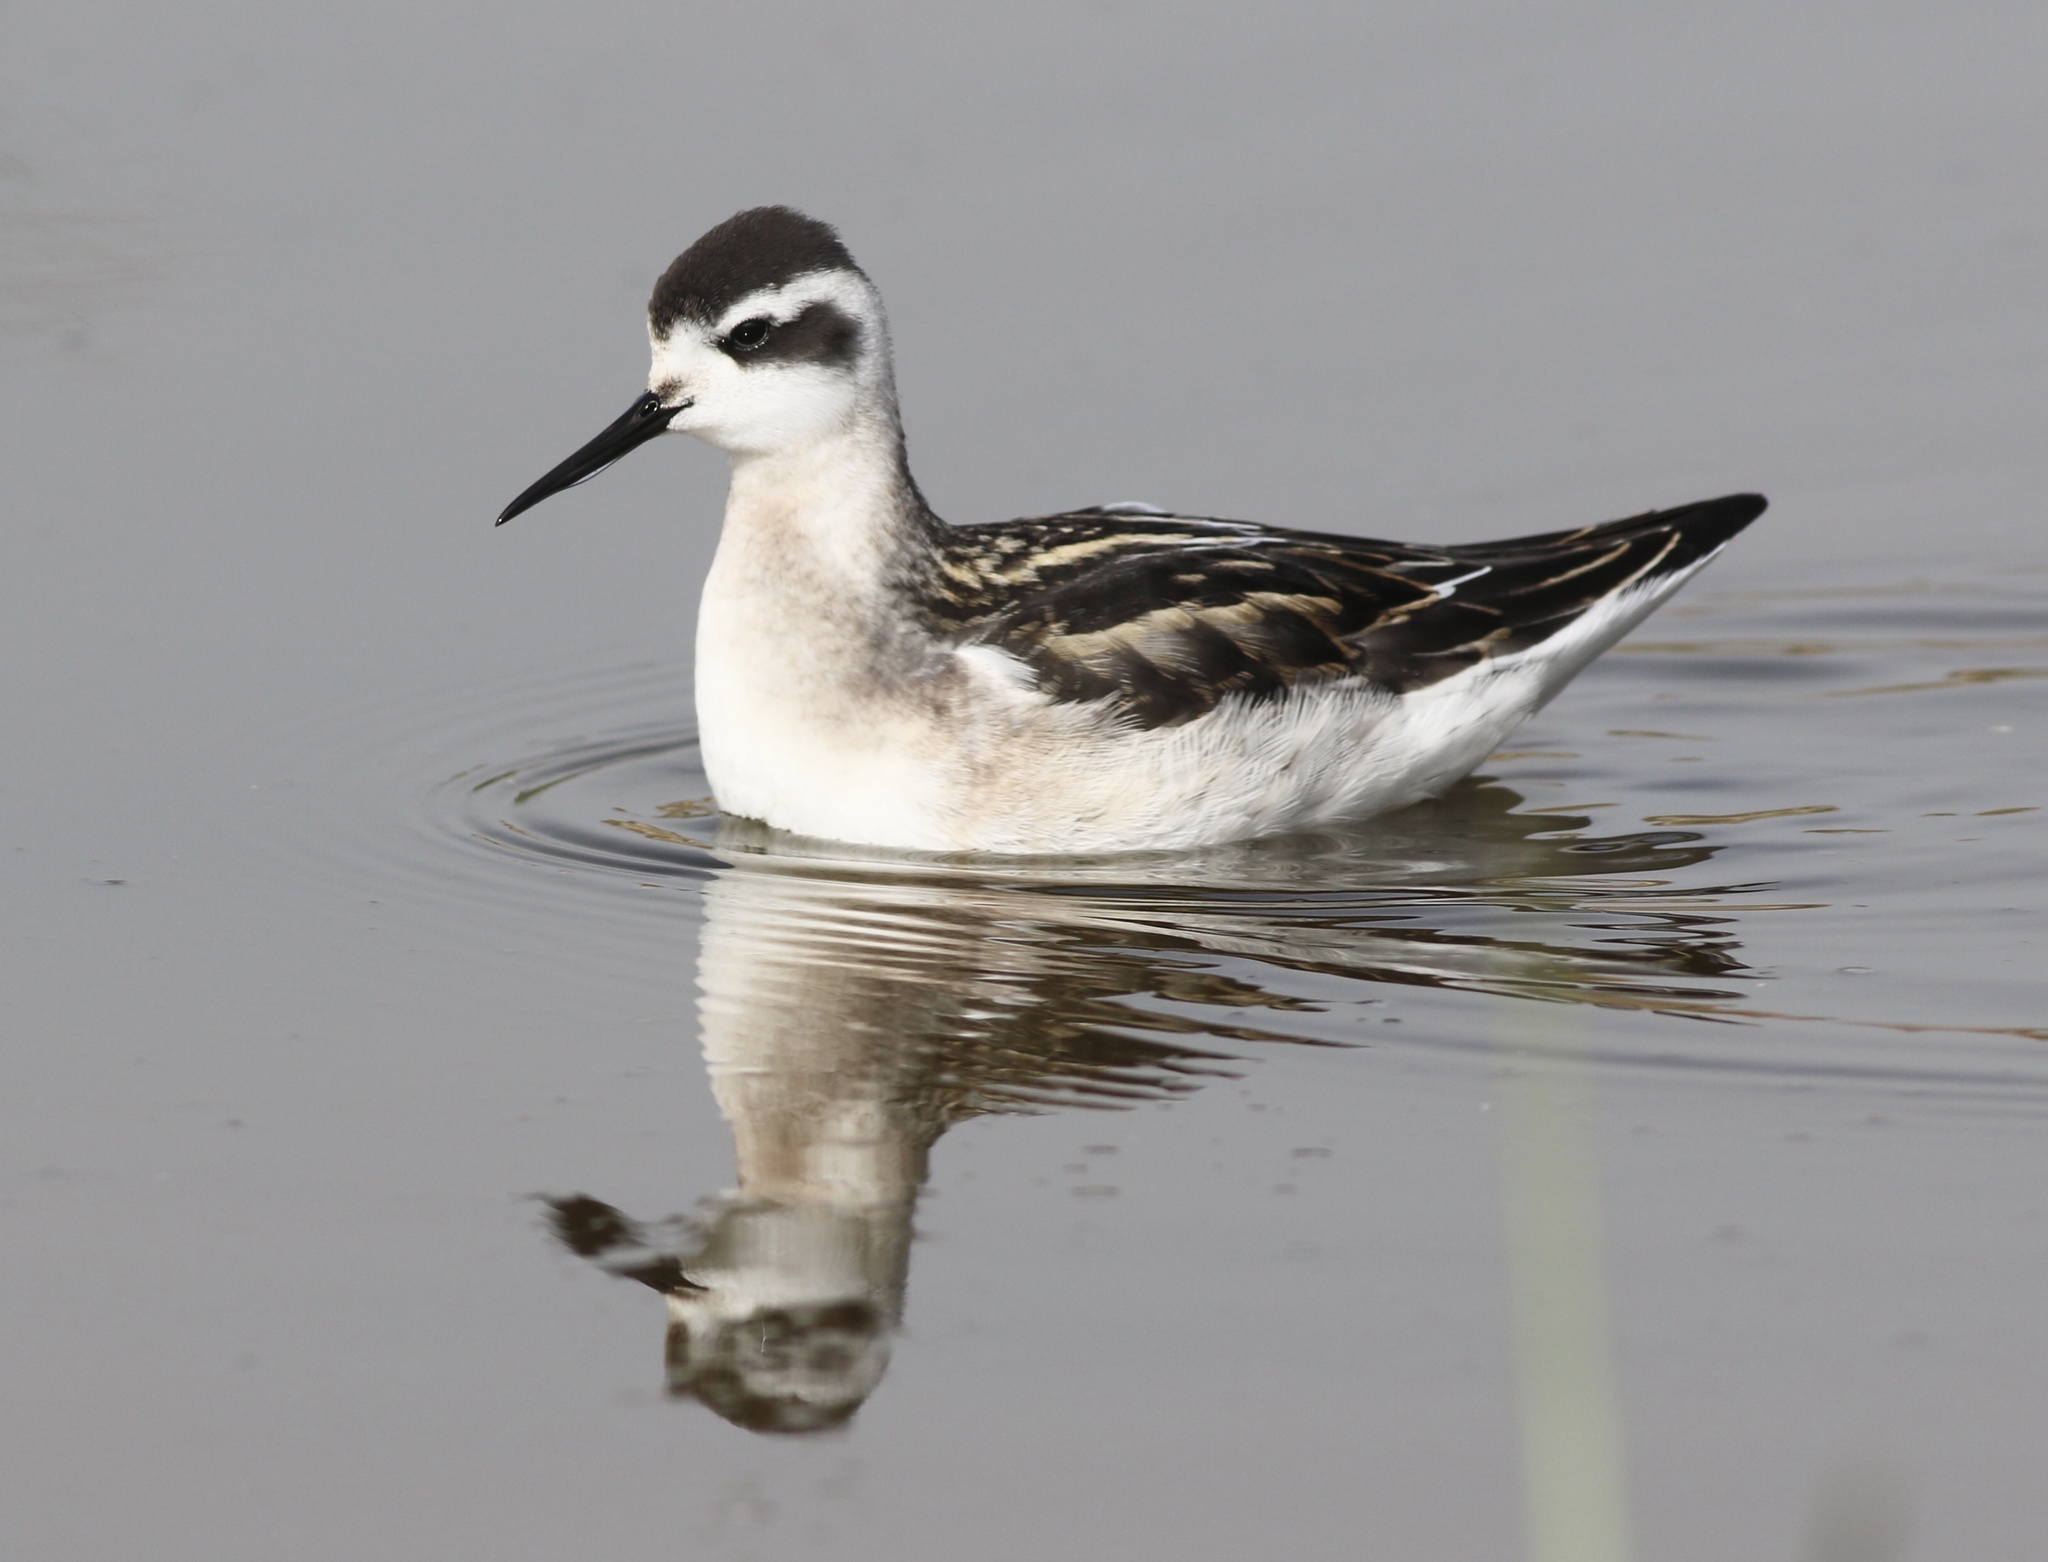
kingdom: Animalia
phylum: Chordata
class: Aves
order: Charadriiformes
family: Scolopacidae
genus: Phalaropus
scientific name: Phalaropus lobatus
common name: Red-necked phalarope
